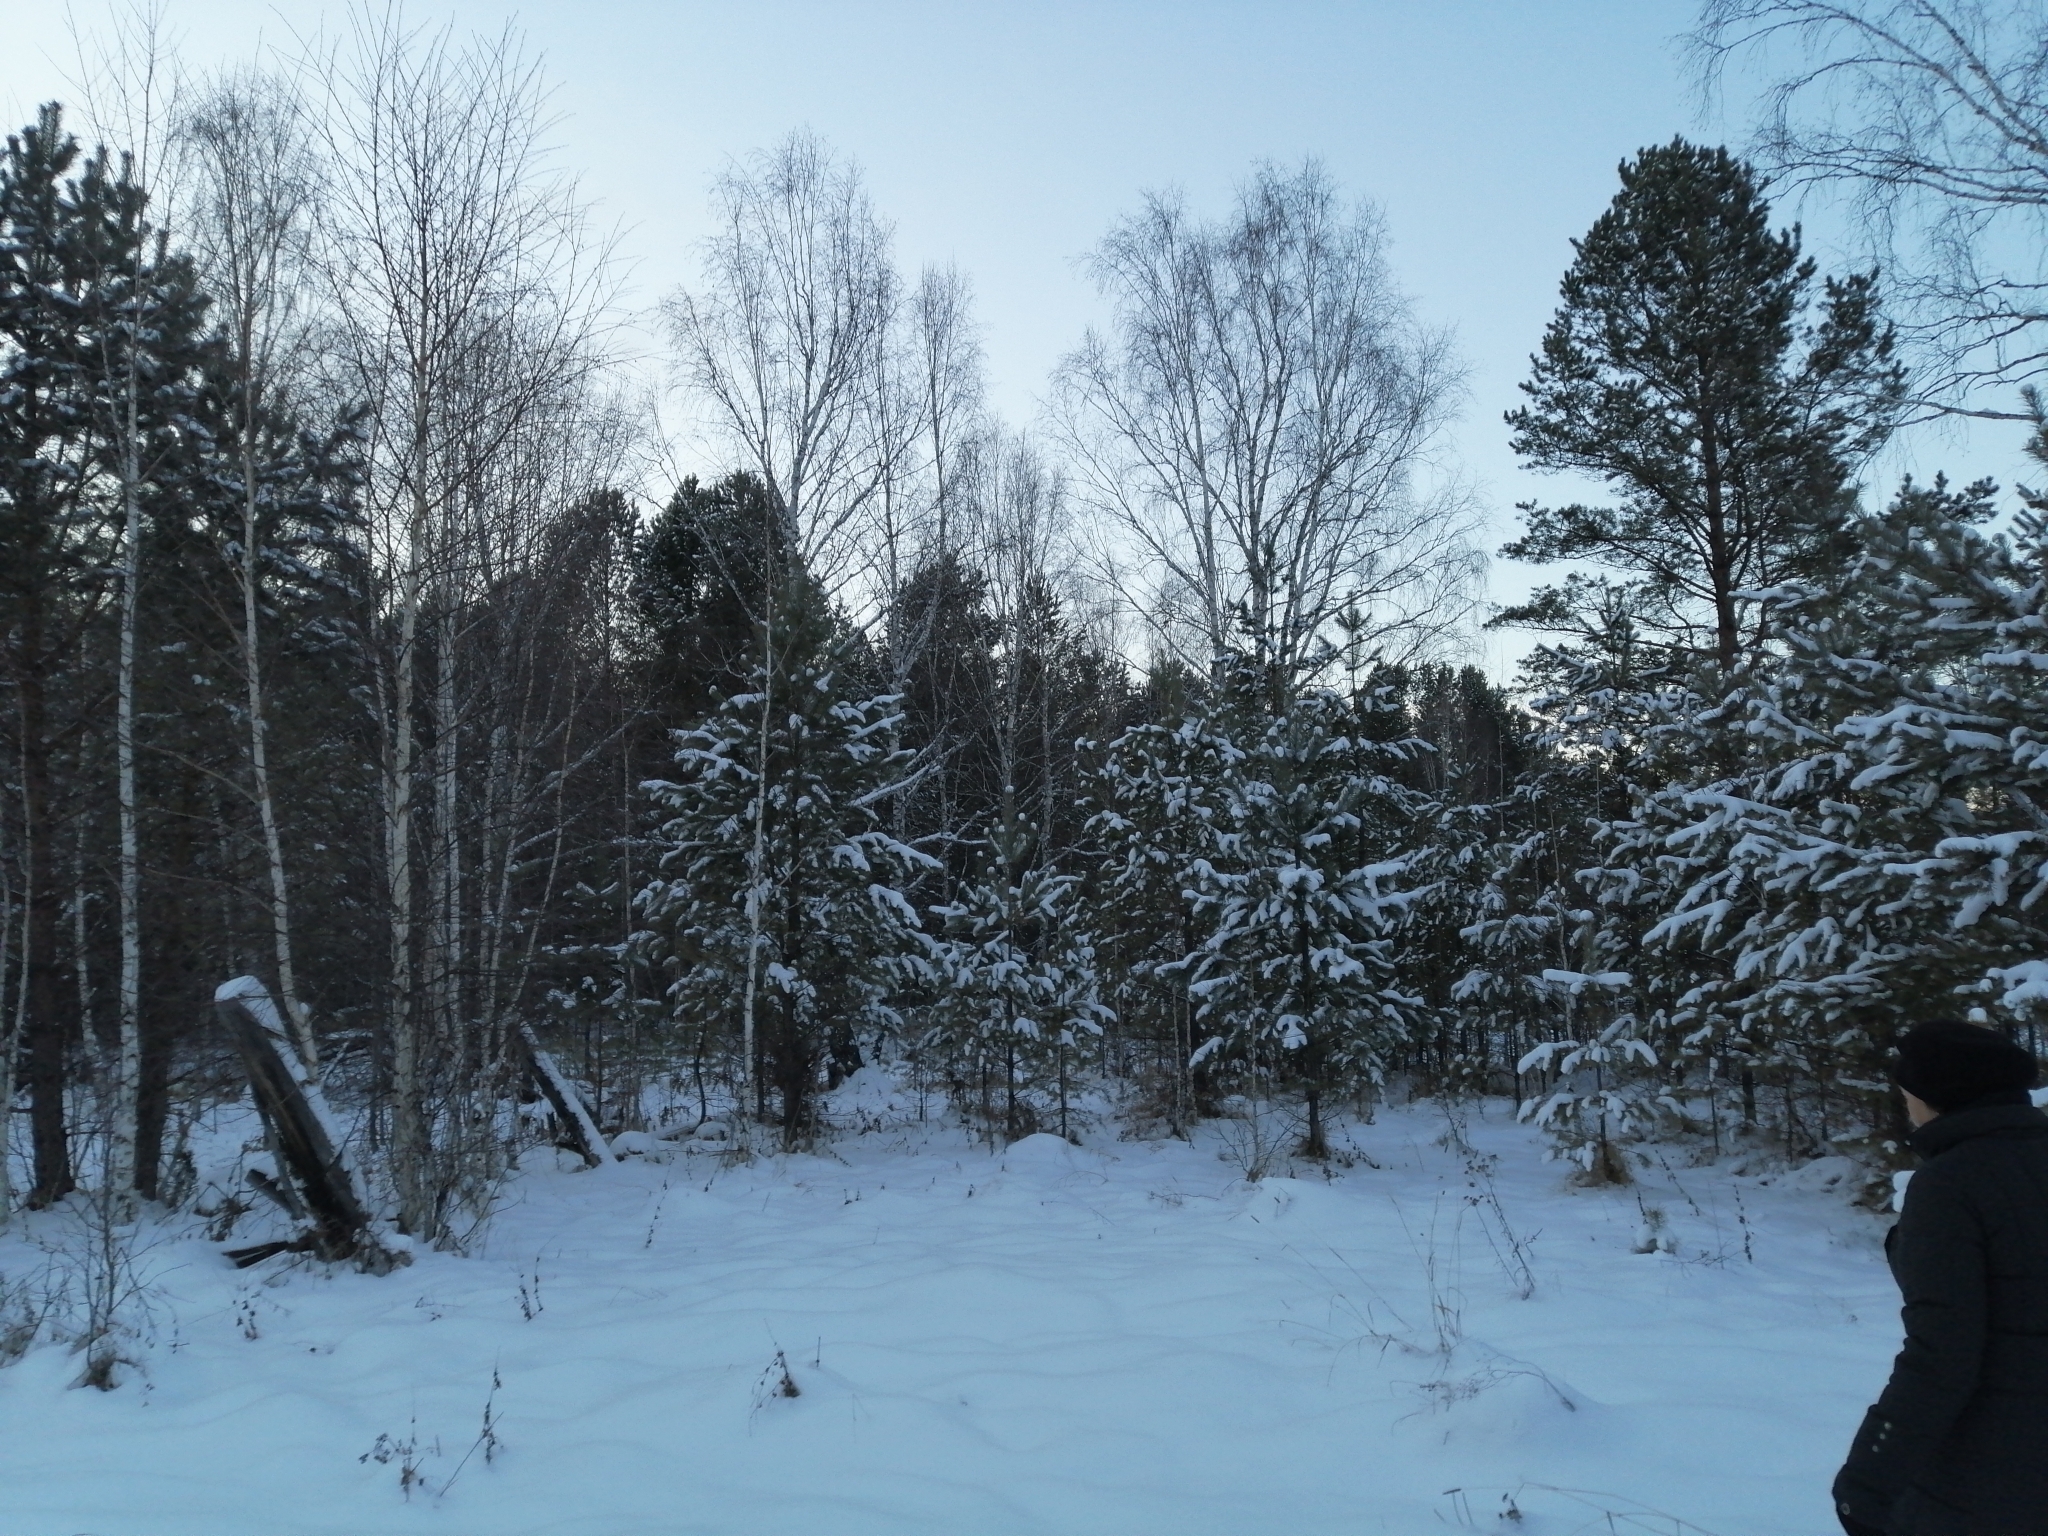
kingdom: Plantae
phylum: Tracheophyta
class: Pinopsida
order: Pinales
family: Pinaceae
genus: Pinus
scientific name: Pinus sylvestris
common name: Scots pine
